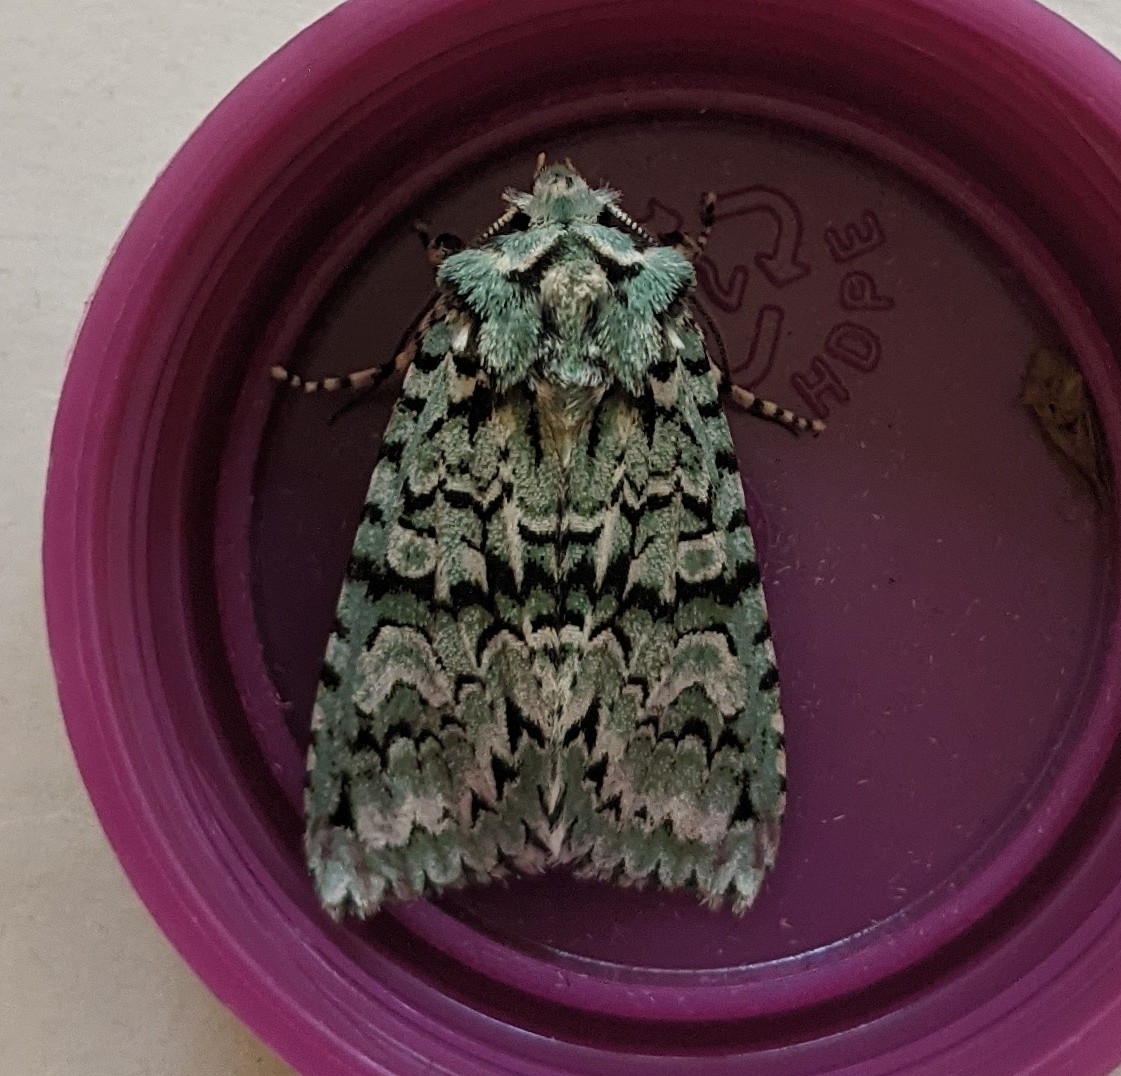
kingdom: Animalia
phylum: Arthropoda
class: Insecta
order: Lepidoptera
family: Noctuidae
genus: Griposia
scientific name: Griposia aprilina
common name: Merveille du jour
